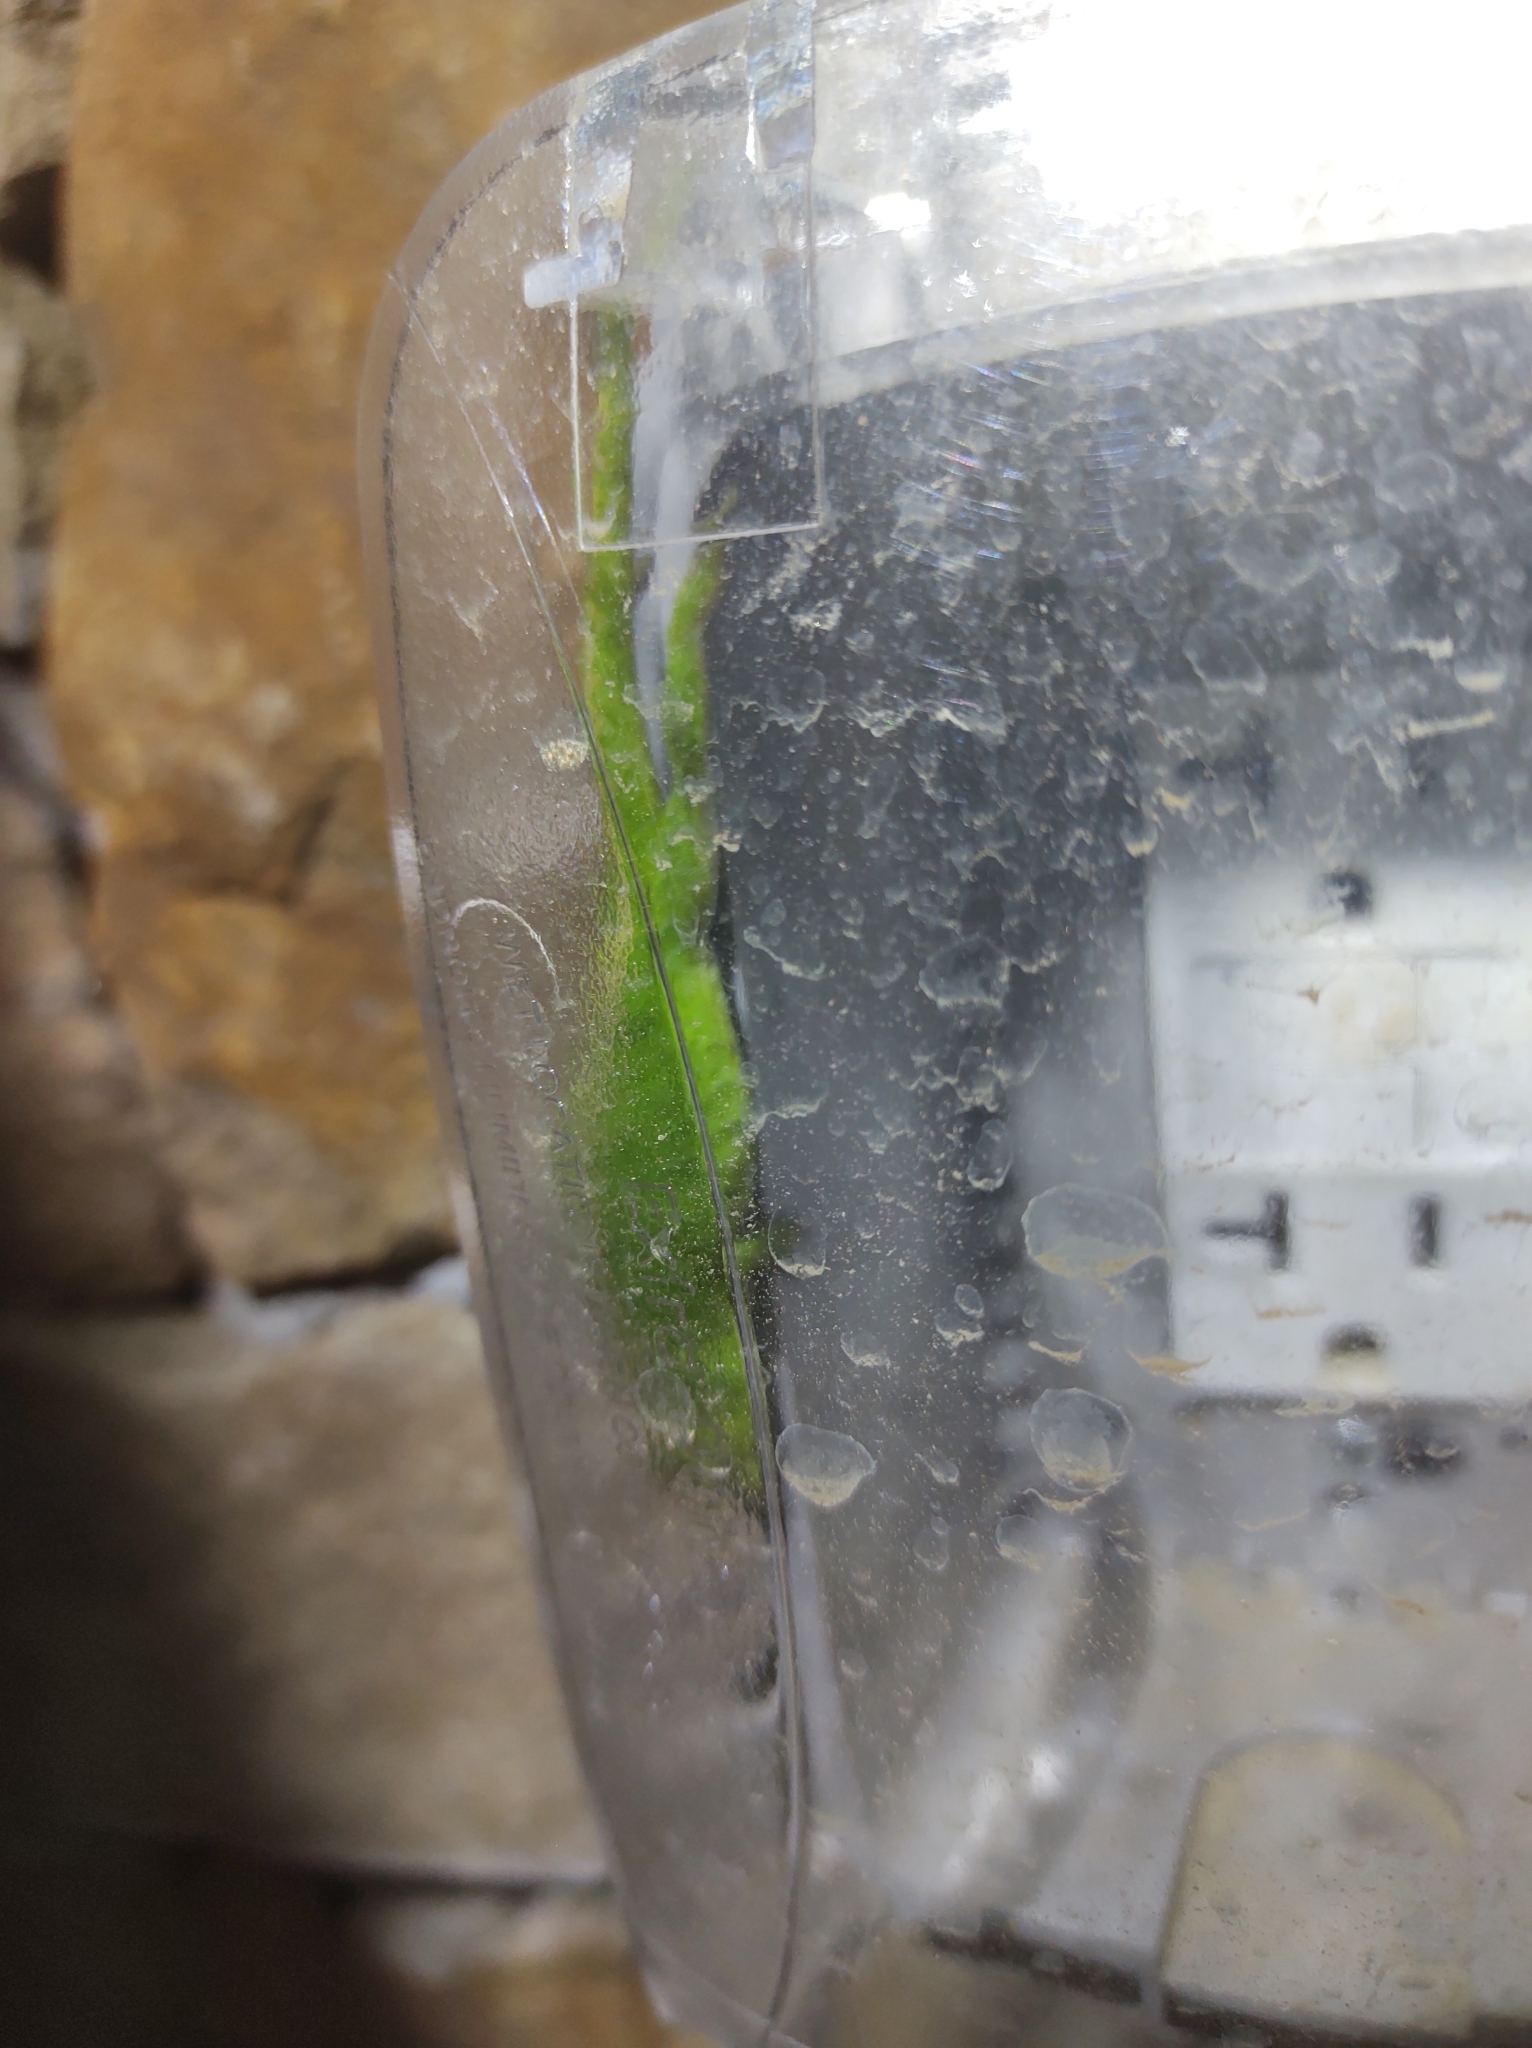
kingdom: Animalia
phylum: Chordata
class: Squamata
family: Dactyloidae
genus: Anolis
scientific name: Anolis carolinensis
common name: Green anole
